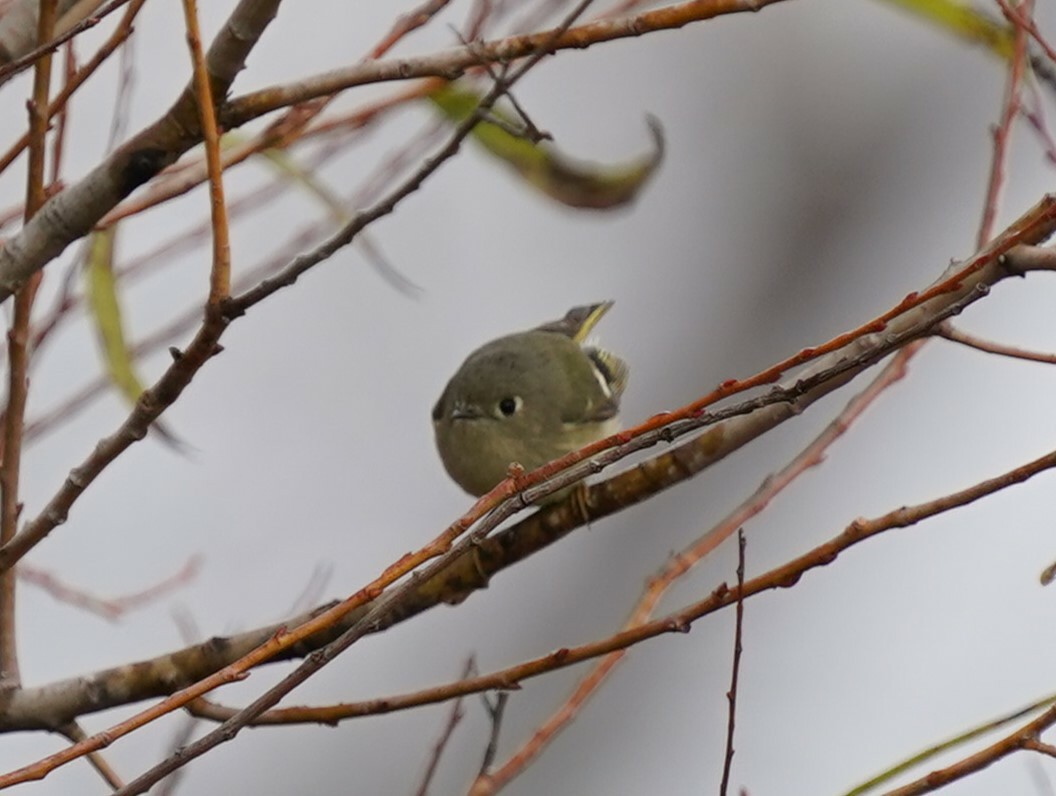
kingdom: Animalia
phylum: Chordata
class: Aves
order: Passeriformes
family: Regulidae
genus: Regulus
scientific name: Regulus calendula
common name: Ruby-crowned kinglet
